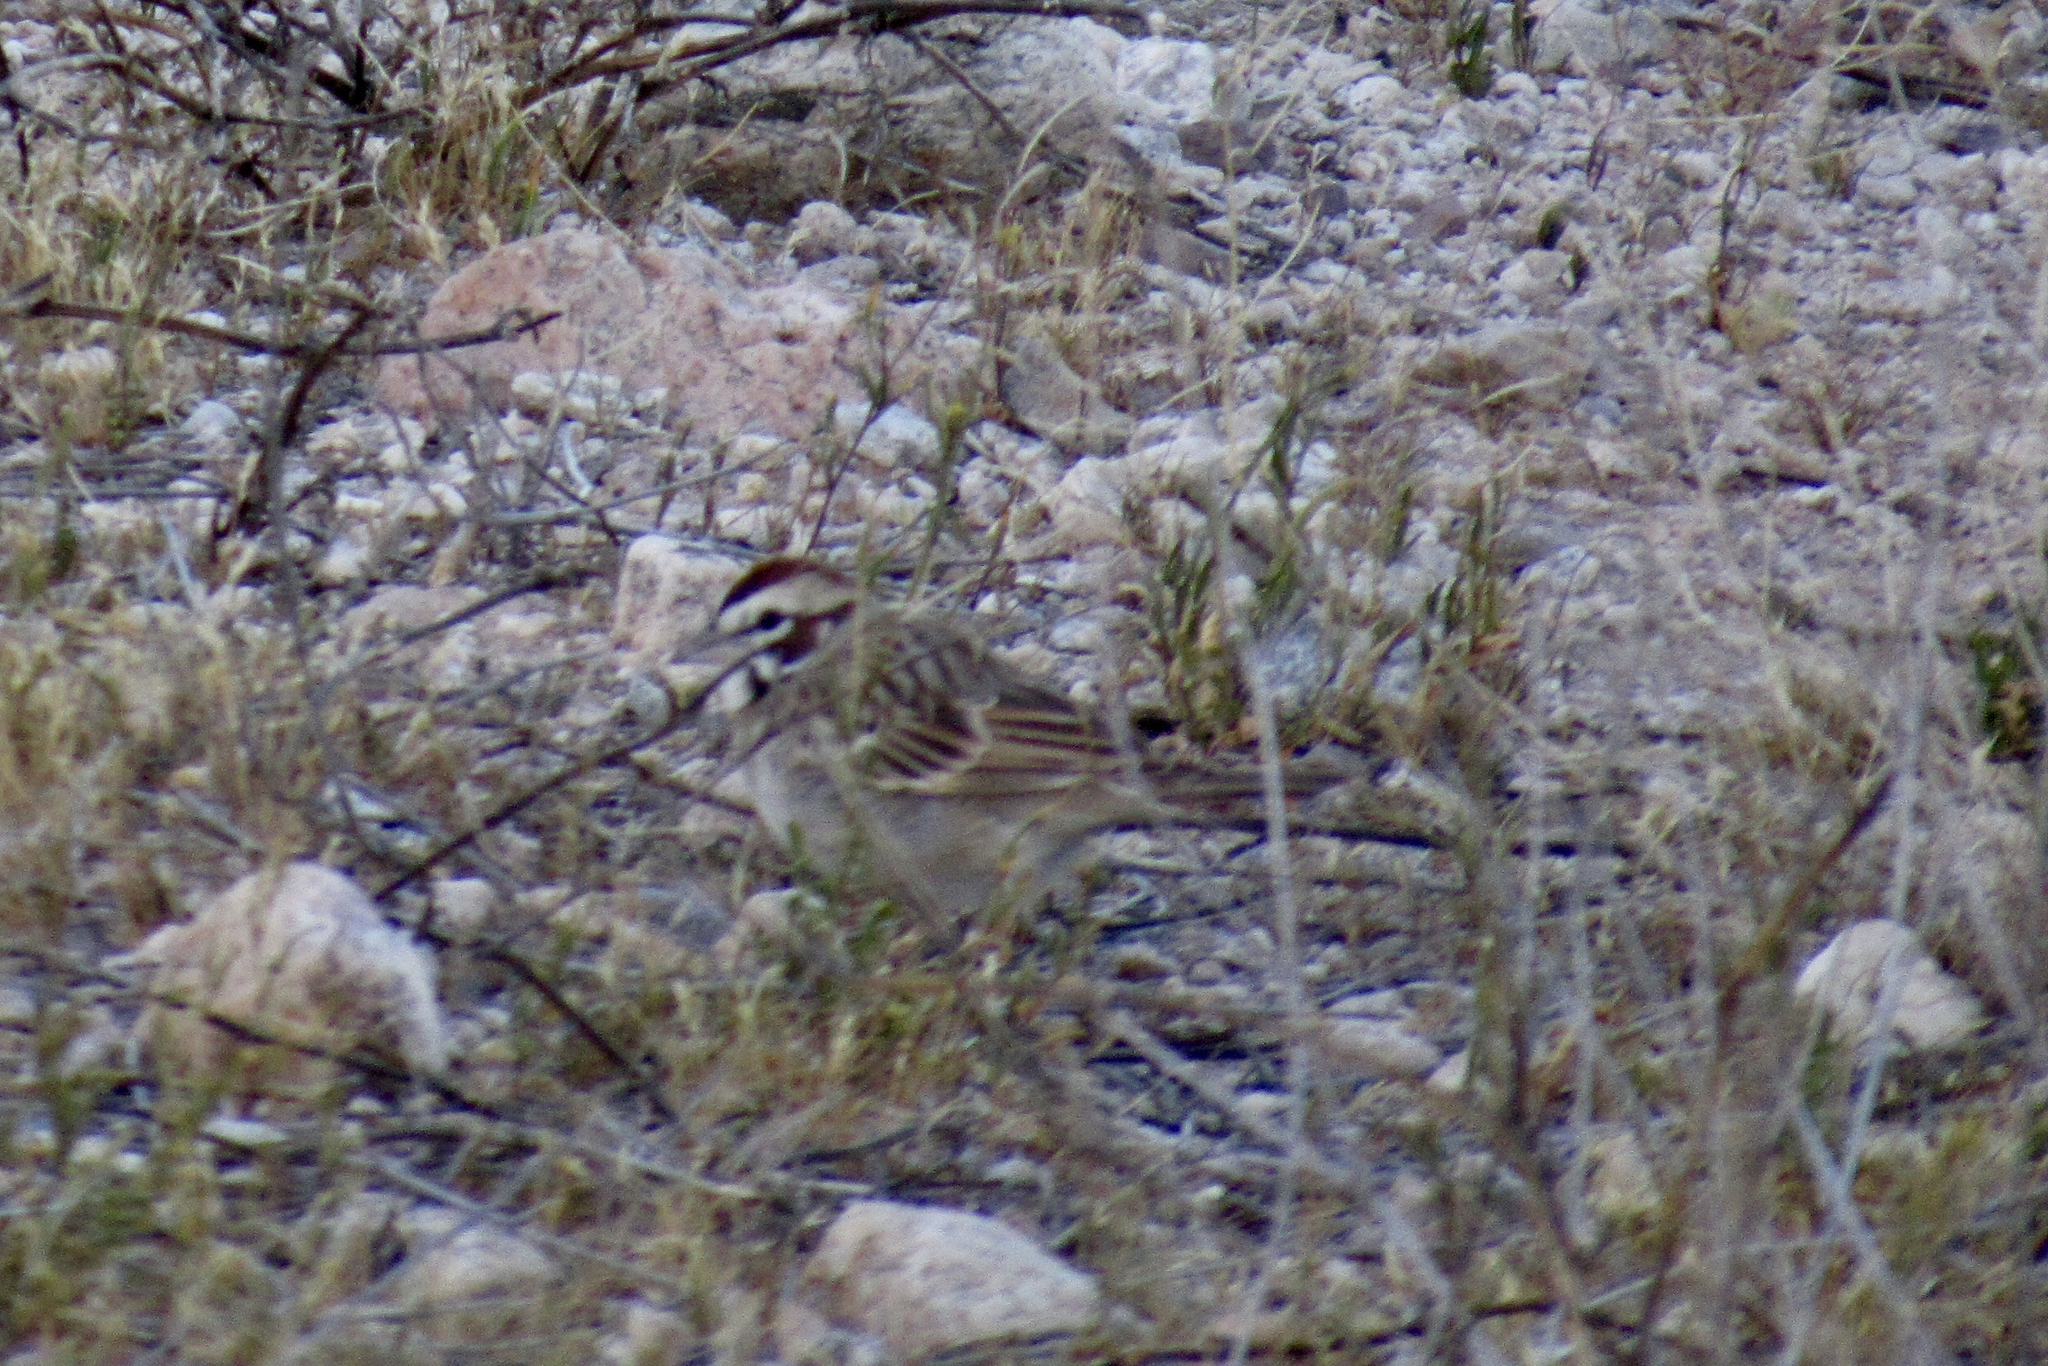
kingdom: Animalia
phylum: Chordata
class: Aves
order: Passeriformes
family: Passerellidae
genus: Chondestes
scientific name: Chondestes grammacus
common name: Lark sparrow
